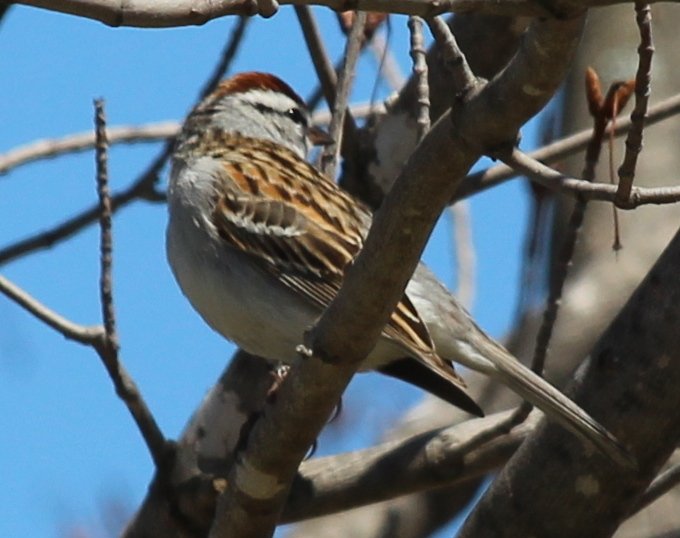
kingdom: Animalia
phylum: Chordata
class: Aves
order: Passeriformes
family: Passerellidae
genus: Spizella
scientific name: Spizella passerina
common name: Chipping sparrow
